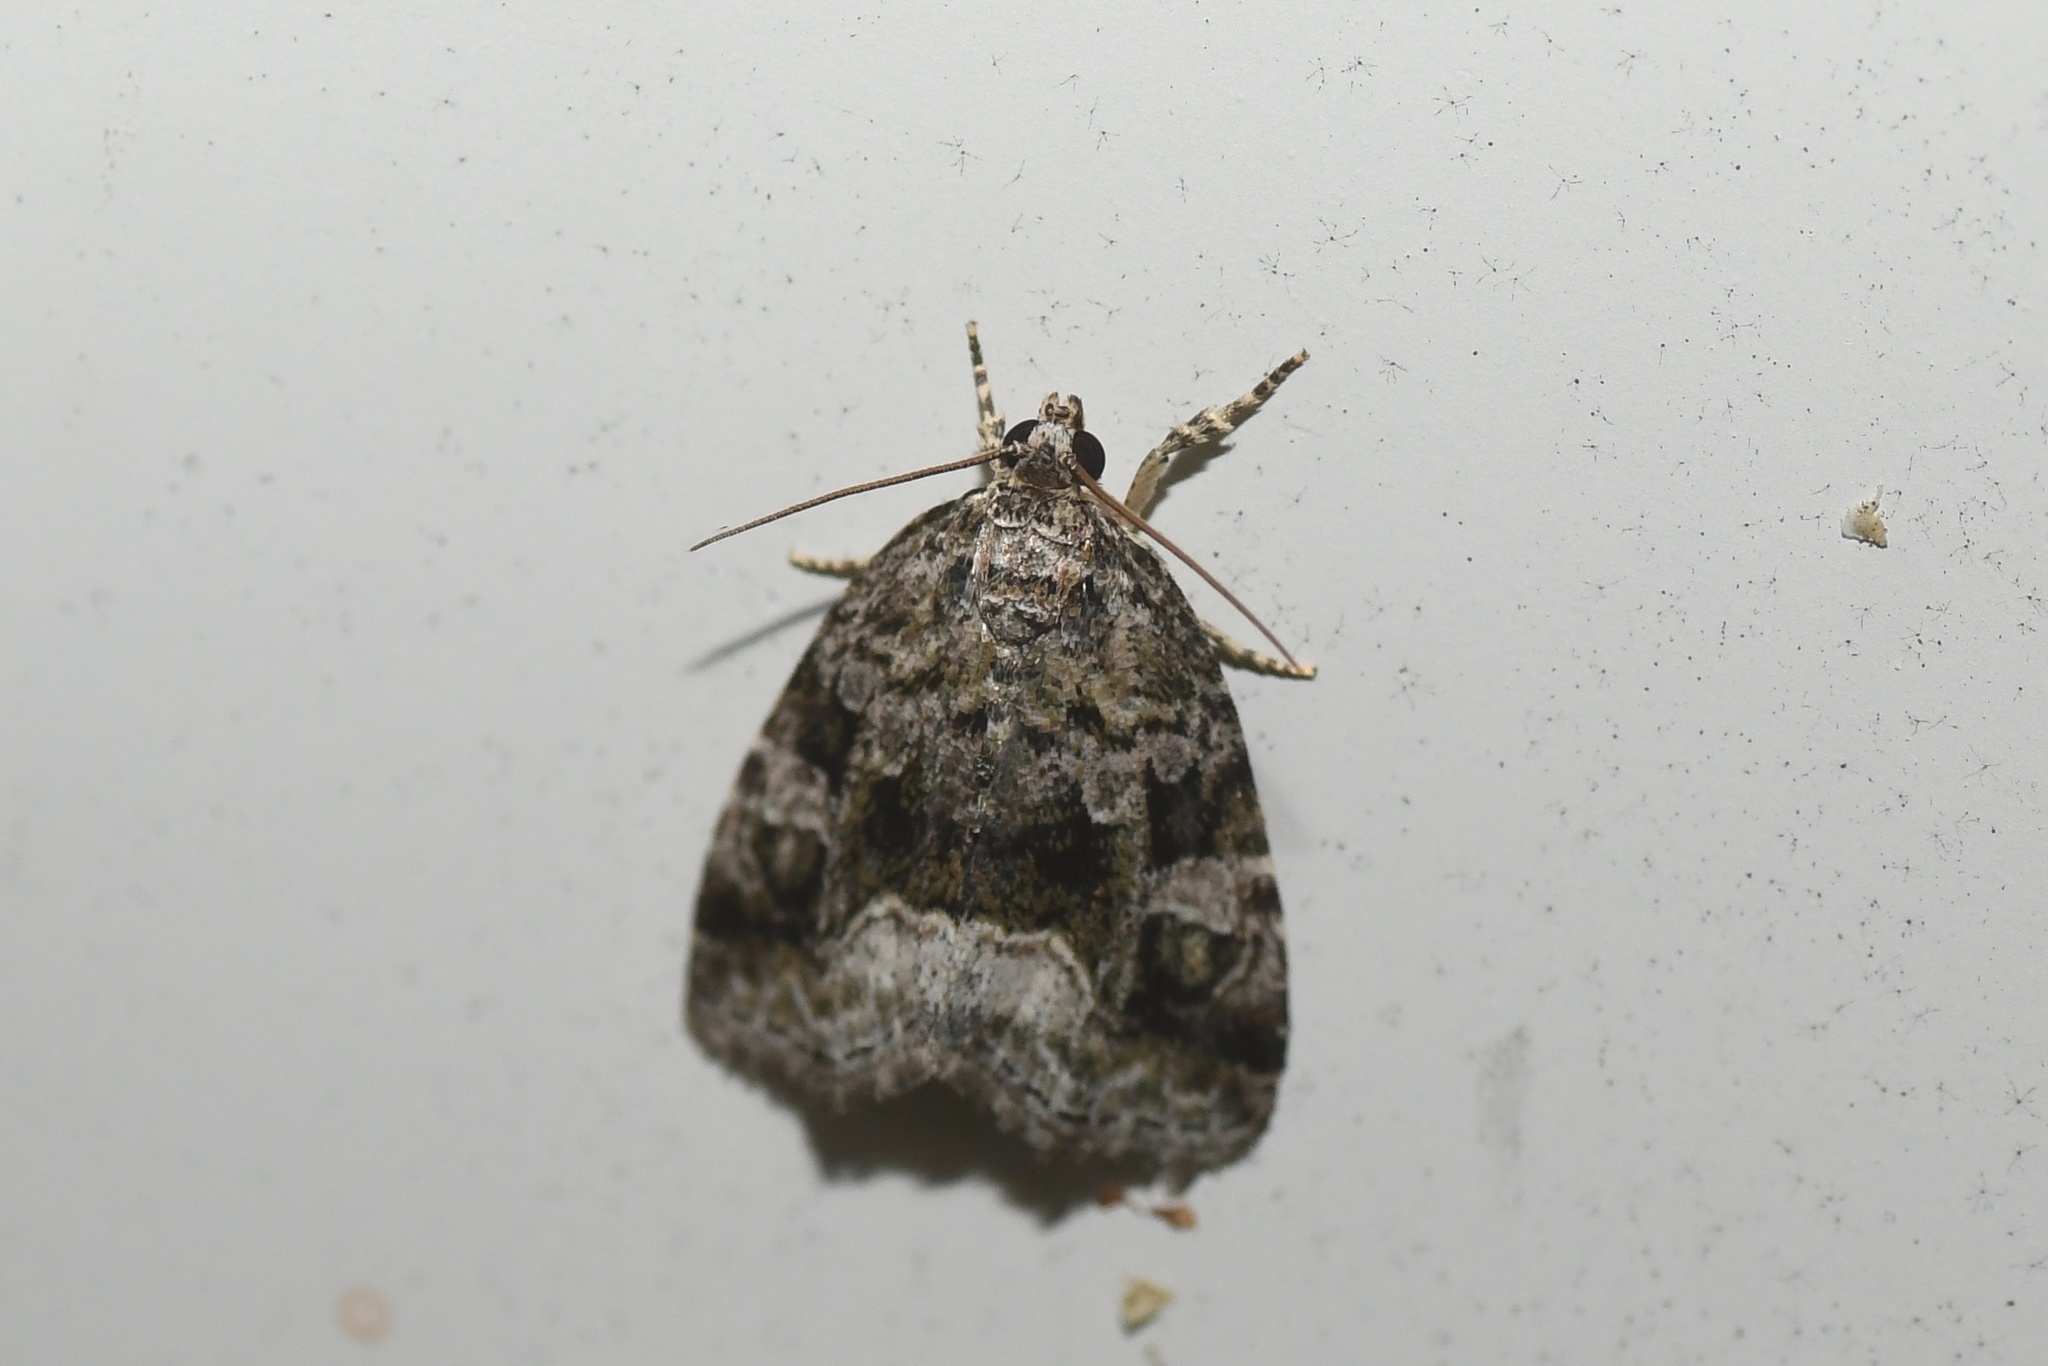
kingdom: Animalia
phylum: Arthropoda
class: Insecta
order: Lepidoptera
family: Noctuidae
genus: Protodeltote
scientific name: Protodeltote muscosula
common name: Large mossy glyph
